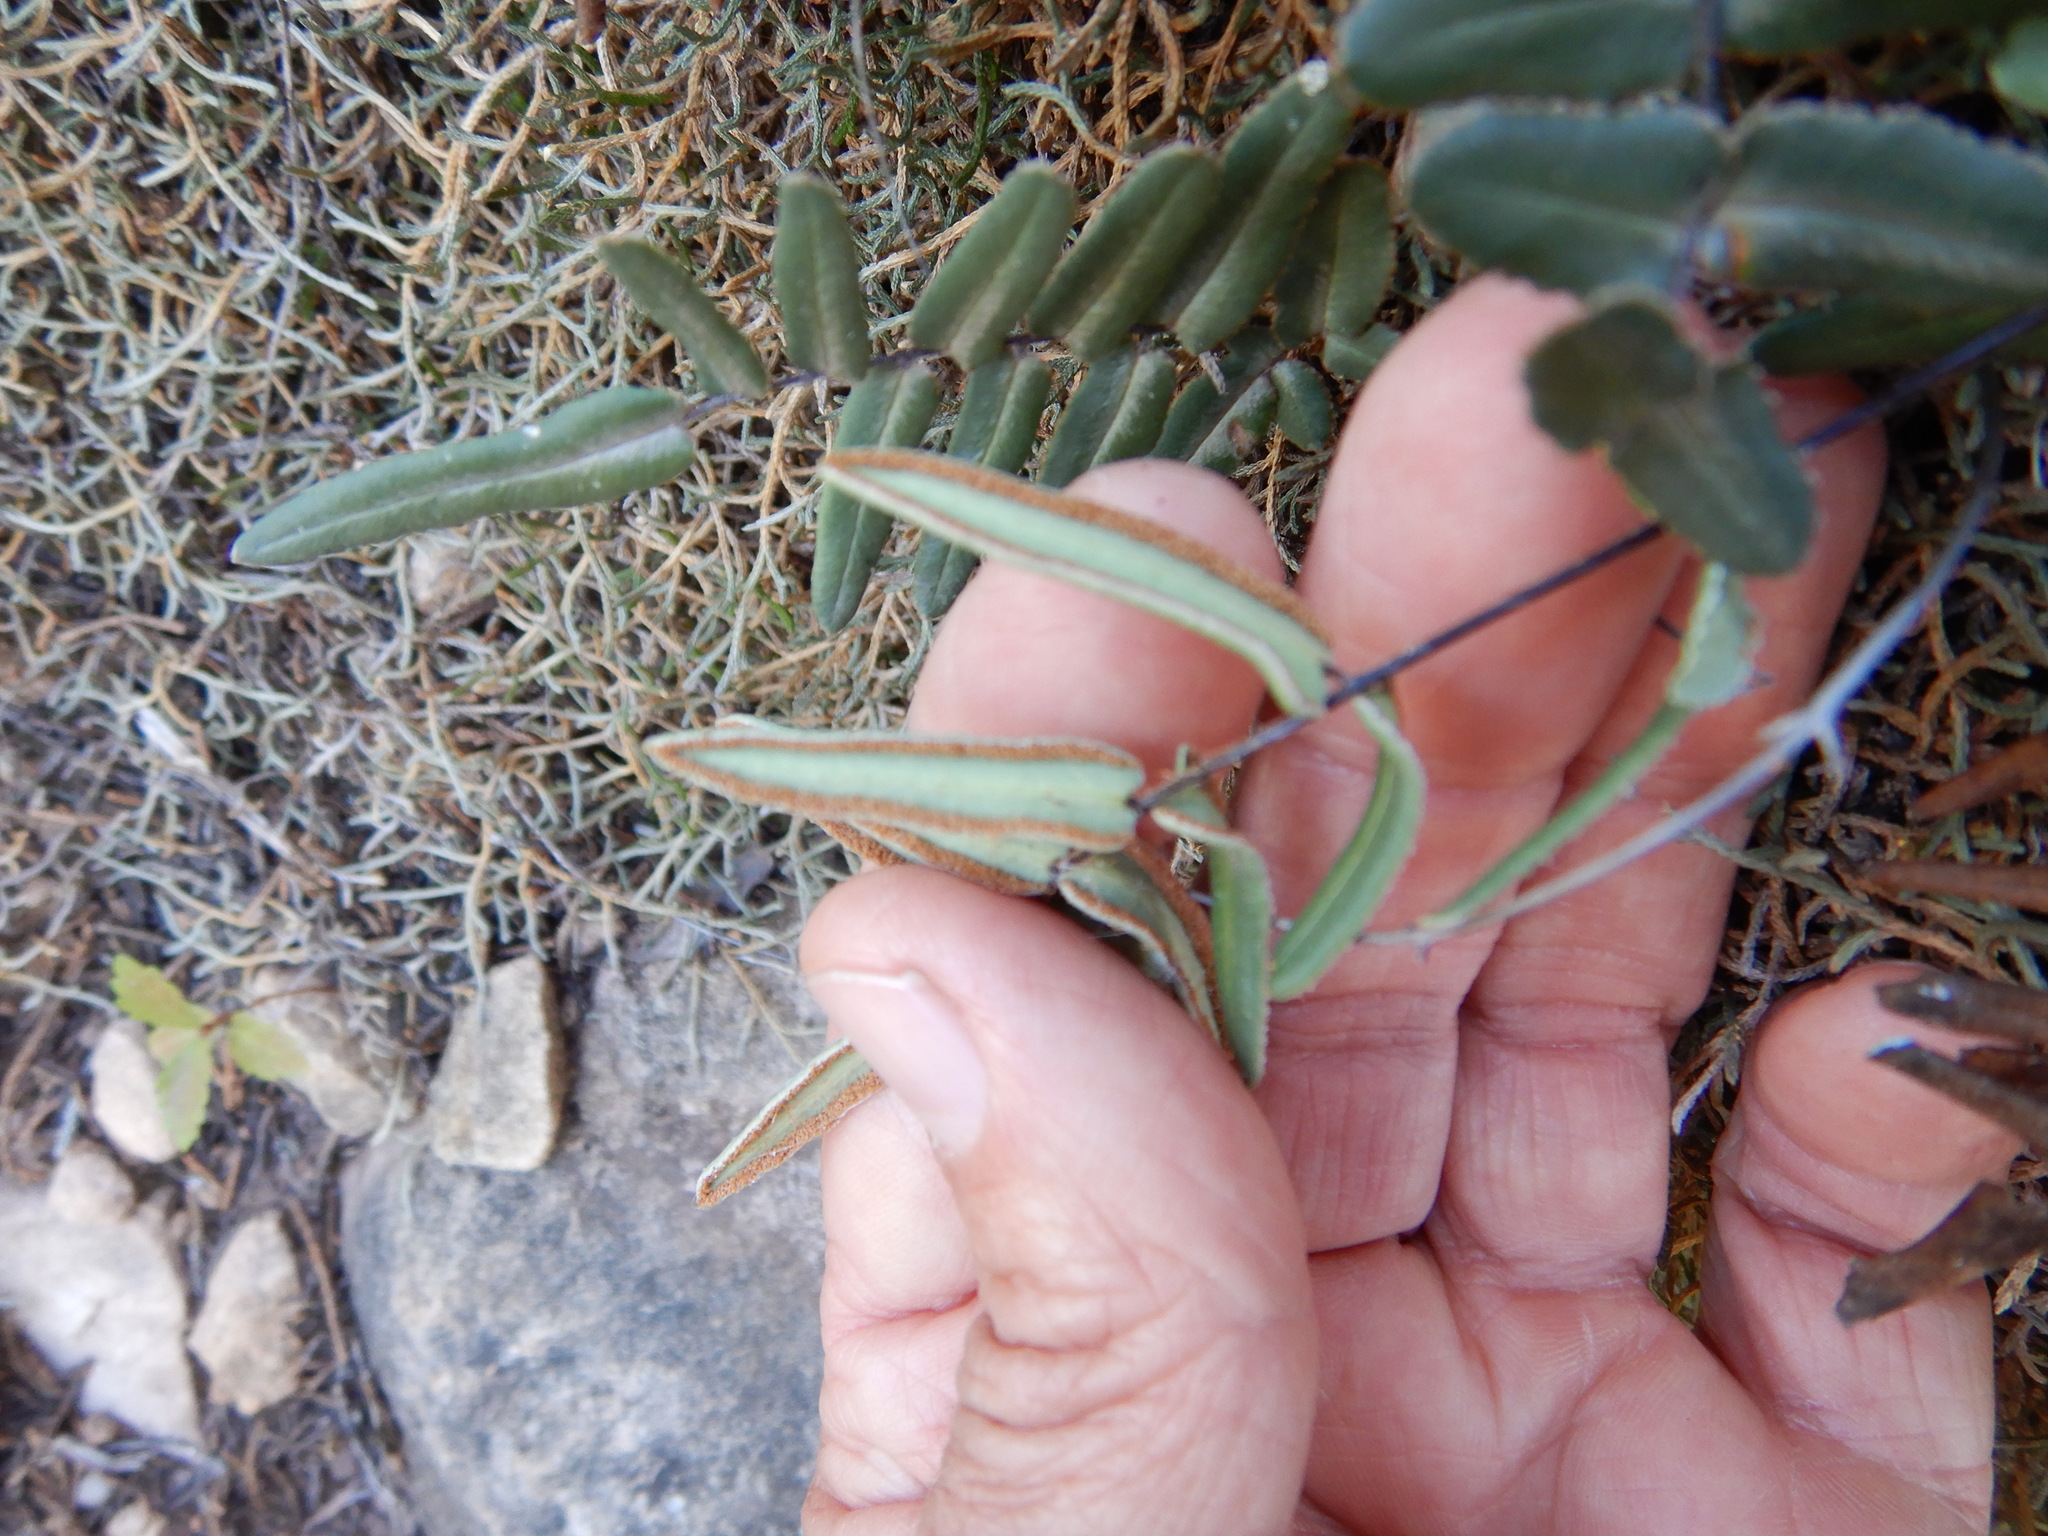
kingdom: Plantae
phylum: Tracheophyta
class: Polypodiopsida
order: Polypodiales
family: Pteridaceae
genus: Pellaea
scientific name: Pellaea atropurpurea
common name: Hairy cliffbrake
